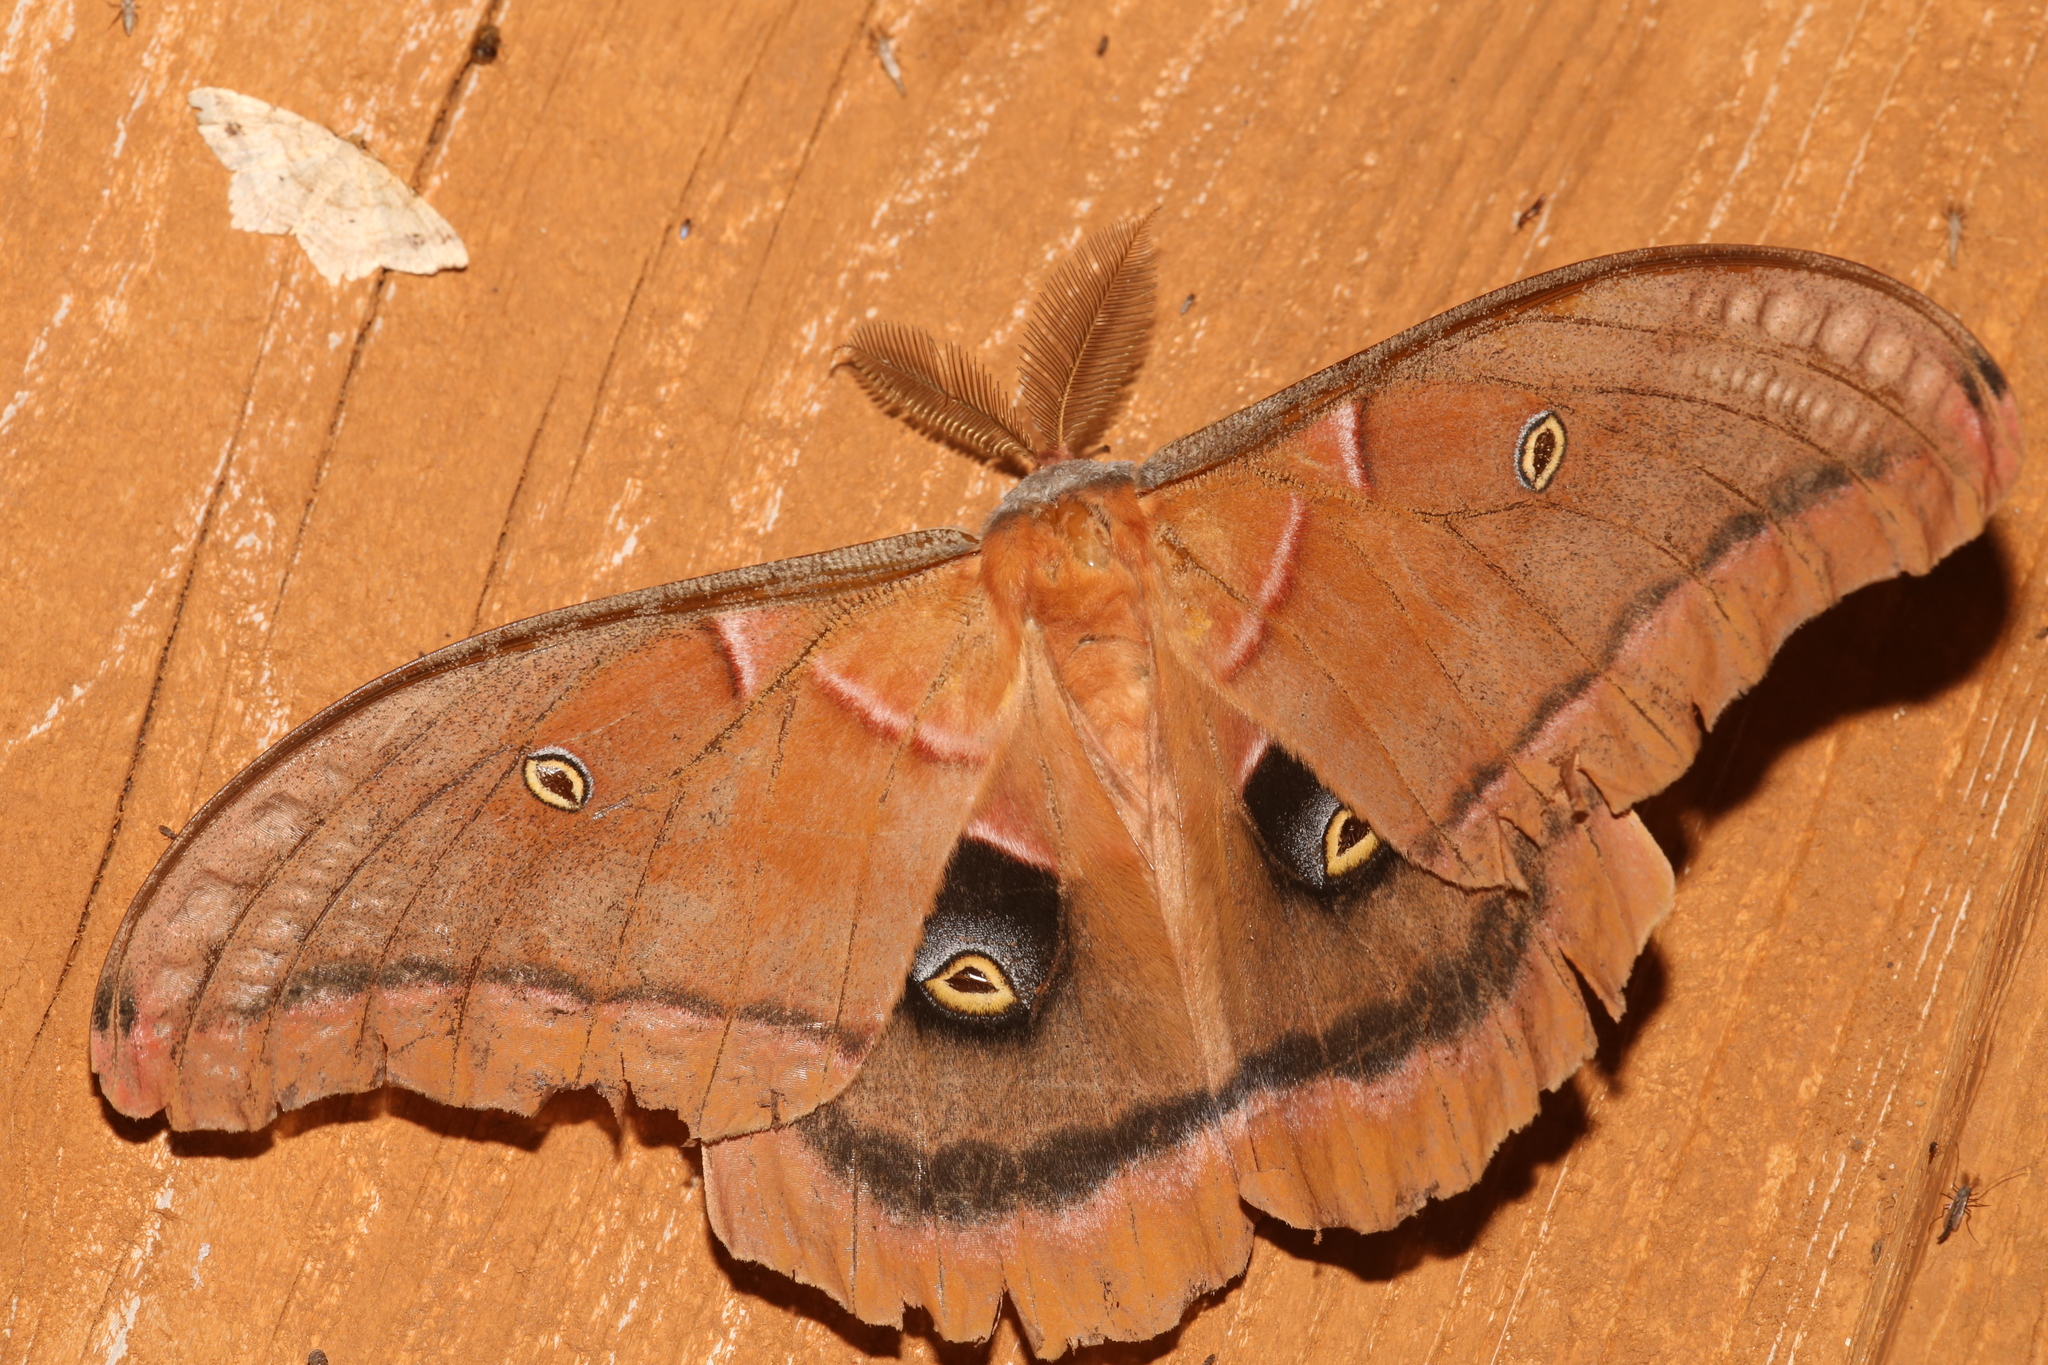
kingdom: Animalia
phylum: Arthropoda
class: Insecta
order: Lepidoptera
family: Saturniidae
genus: Antheraea
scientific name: Antheraea polyphemus
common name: Polyphemus moth
